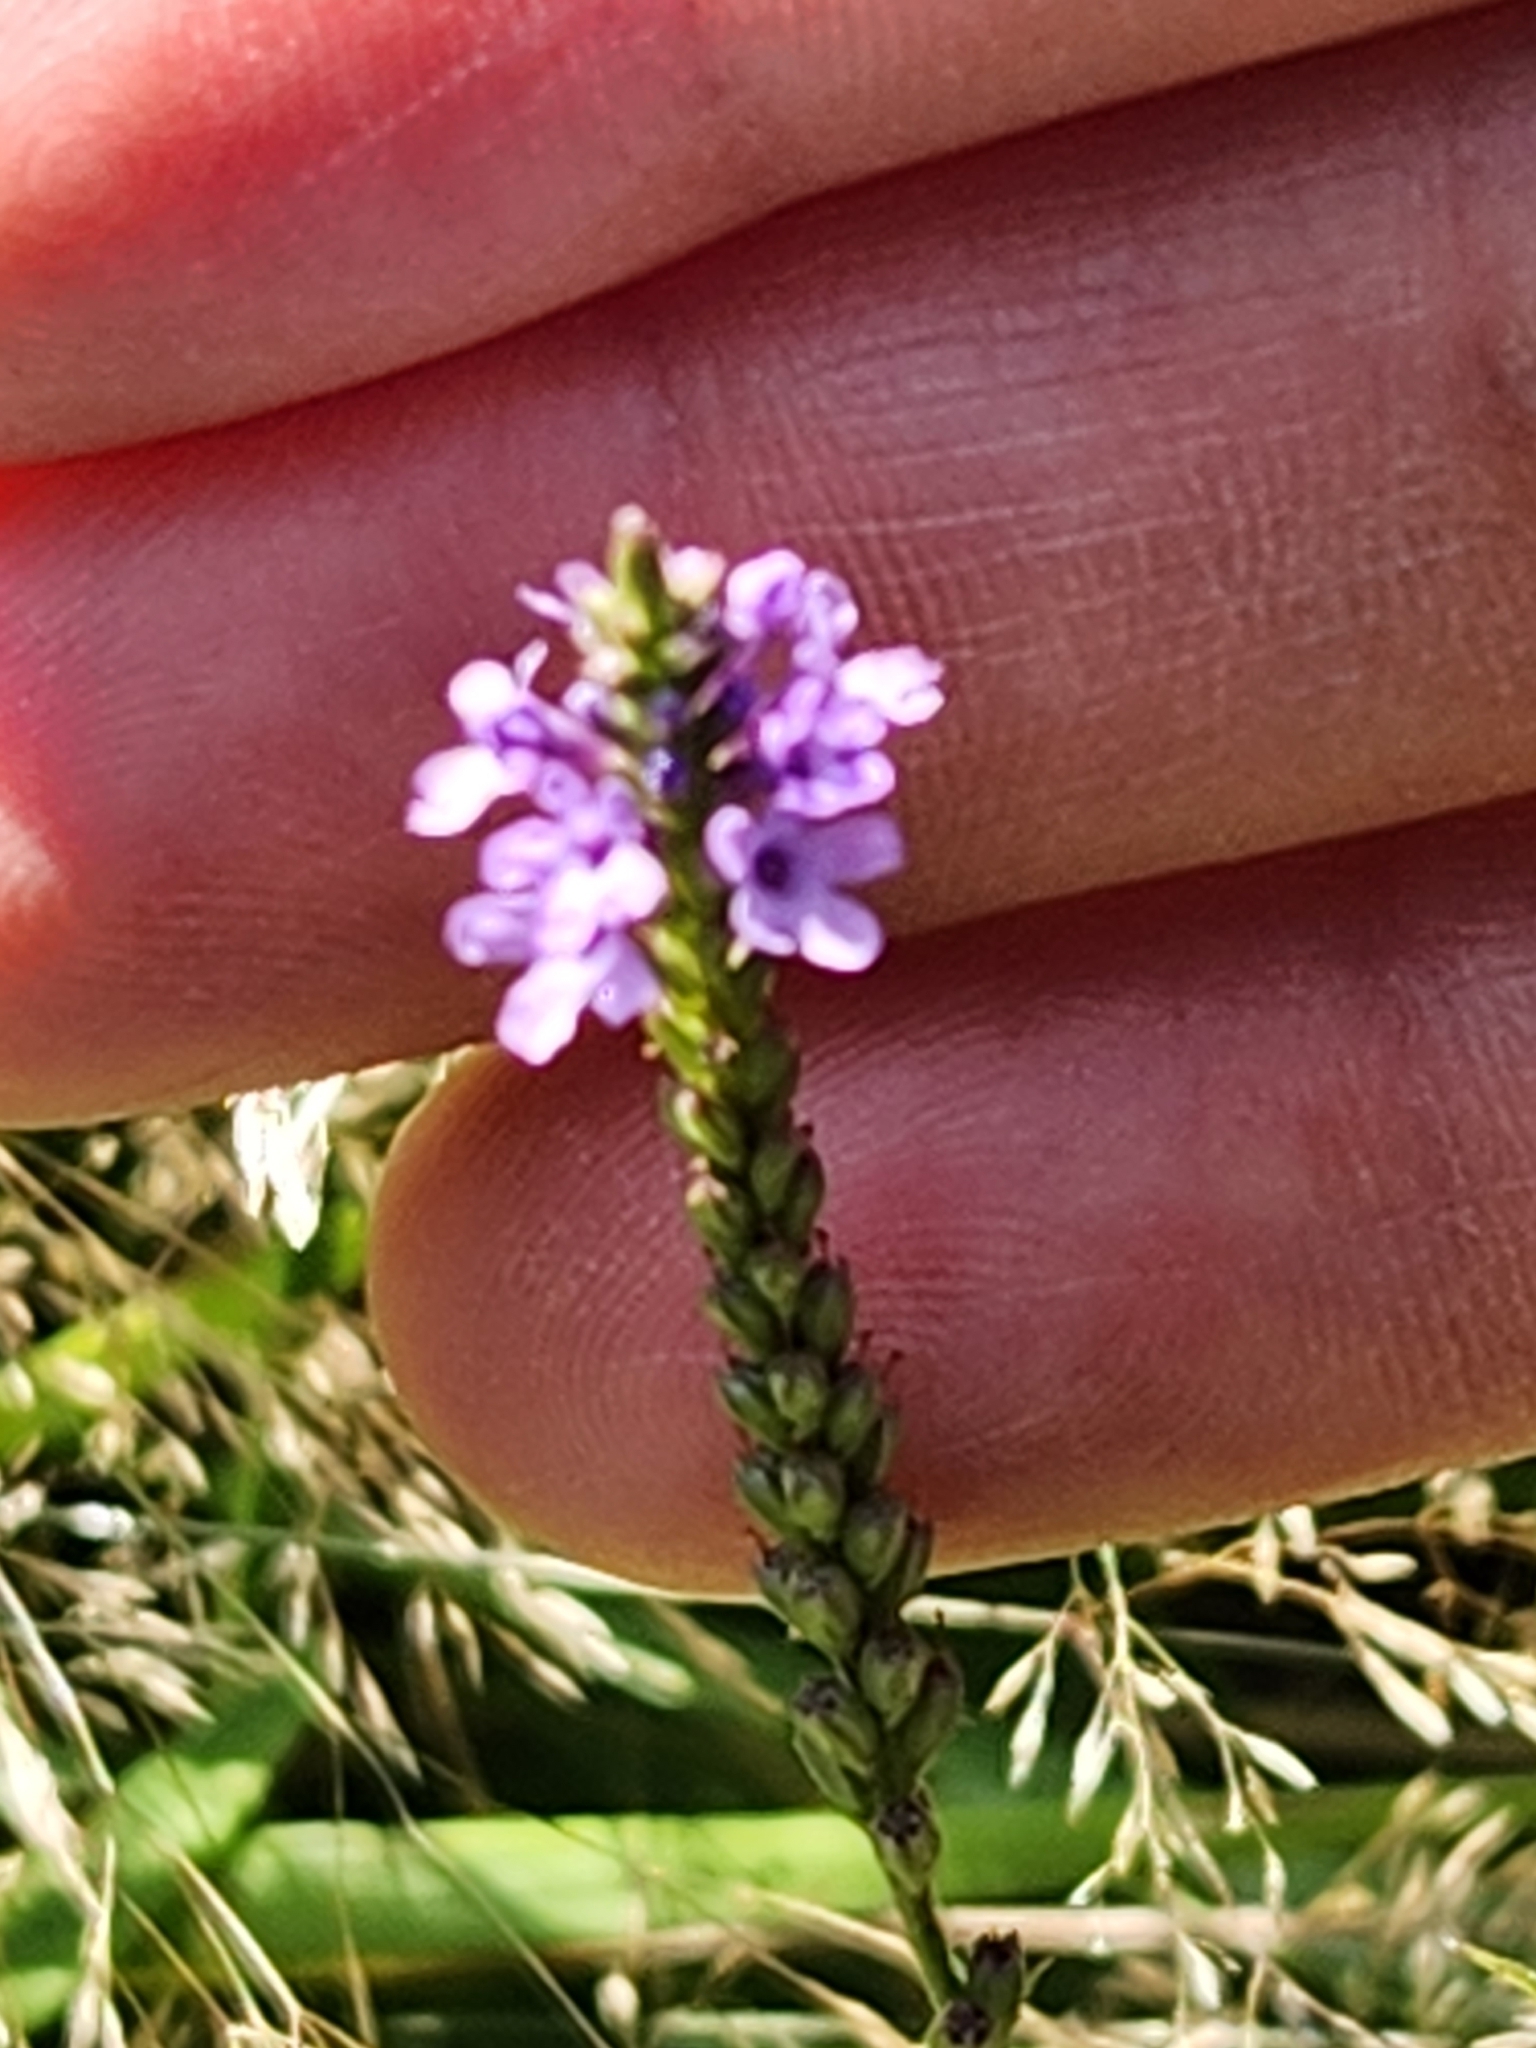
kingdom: Plantae
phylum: Tracheophyta
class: Magnoliopsida
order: Lamiales
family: Verbenaceae
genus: Verbena
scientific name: Verbena hastata
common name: American blue vervain
